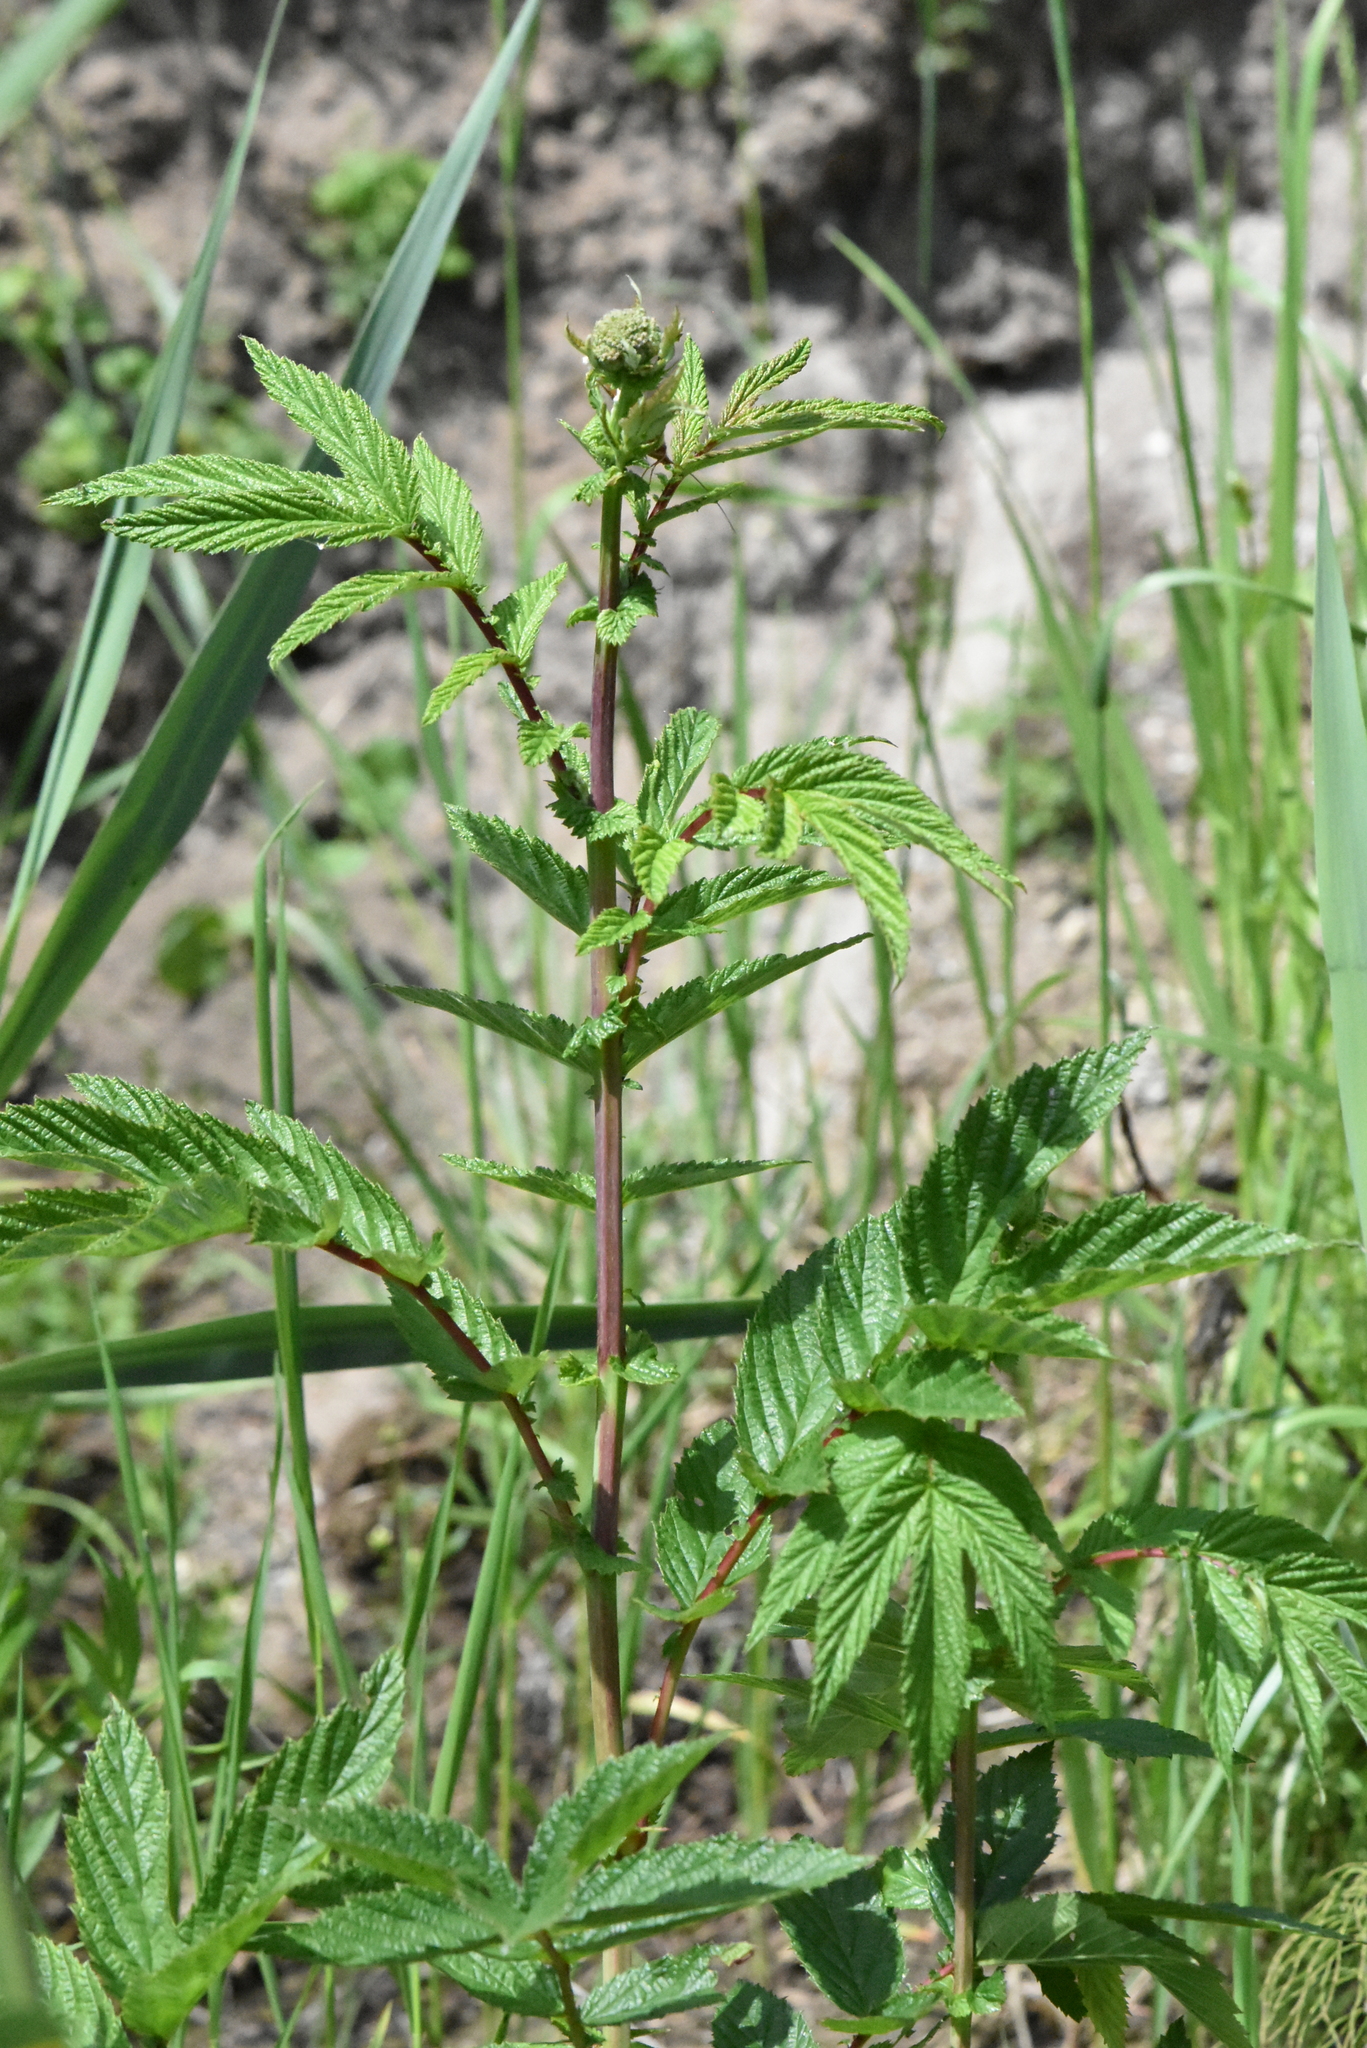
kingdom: Plantae
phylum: Tracheophyta
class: Magnoliopsida
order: Rosales
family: Rosaceae
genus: Filipendula
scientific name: Filipendula ulmaria
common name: Meadowsweet
